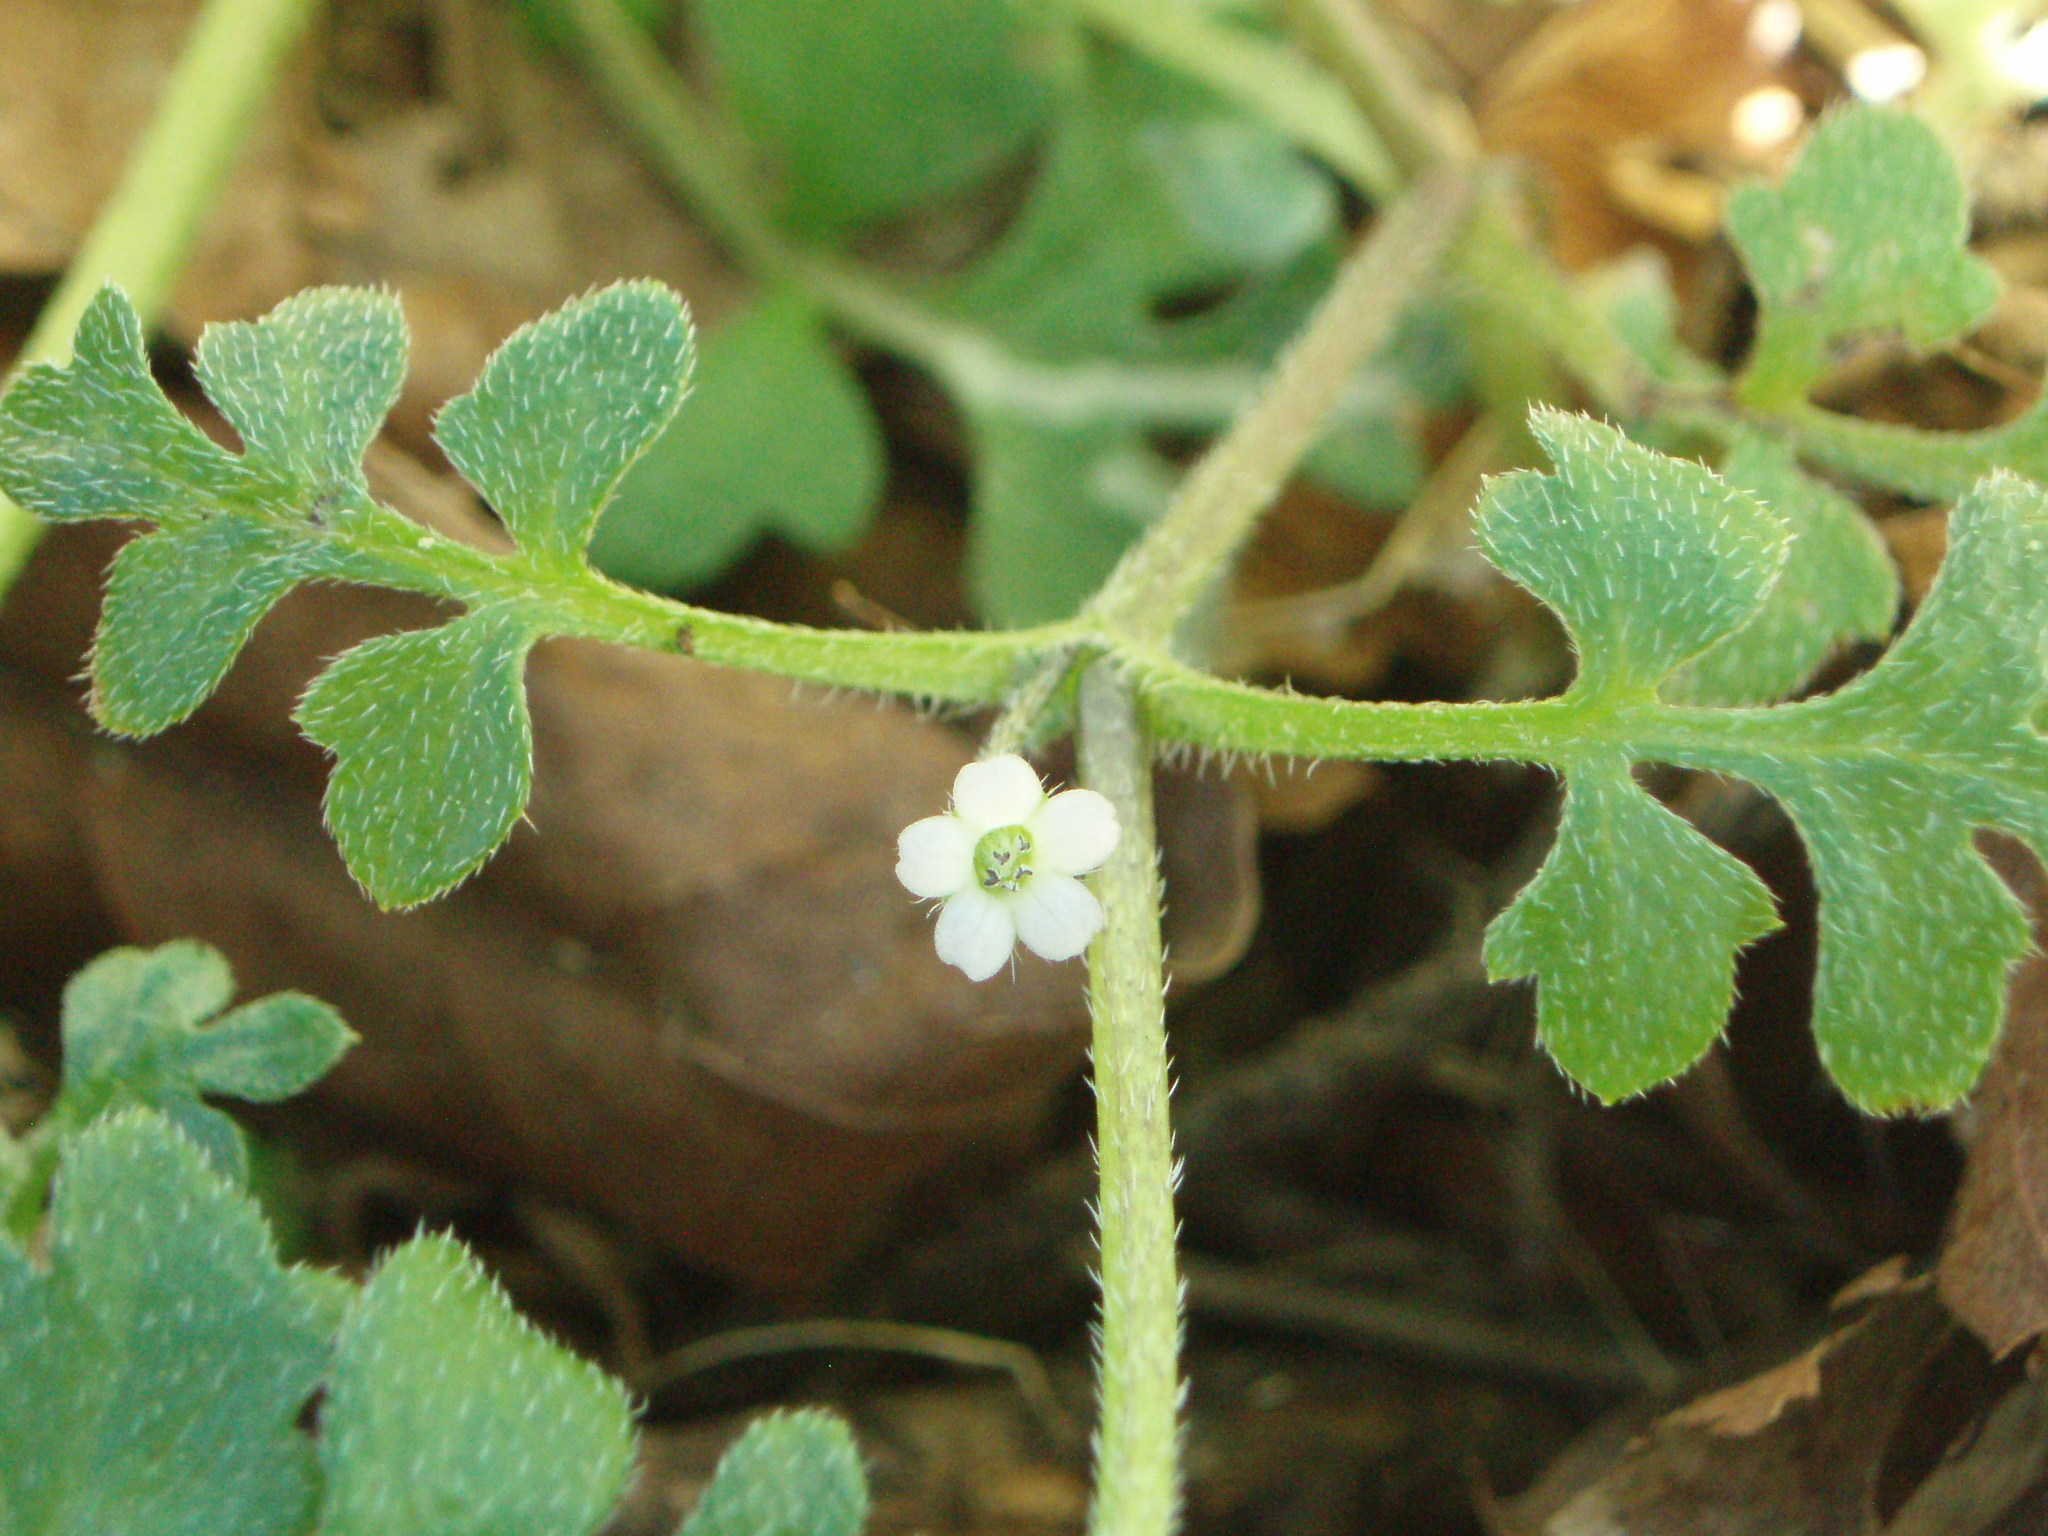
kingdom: Plantae
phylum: Tracheophyta
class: Magnoliopsida
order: Boraginales
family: Hydrophyllaceae
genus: Nemophila
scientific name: Nemophila parviflora
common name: Small-flowered baby-blue-eyes
